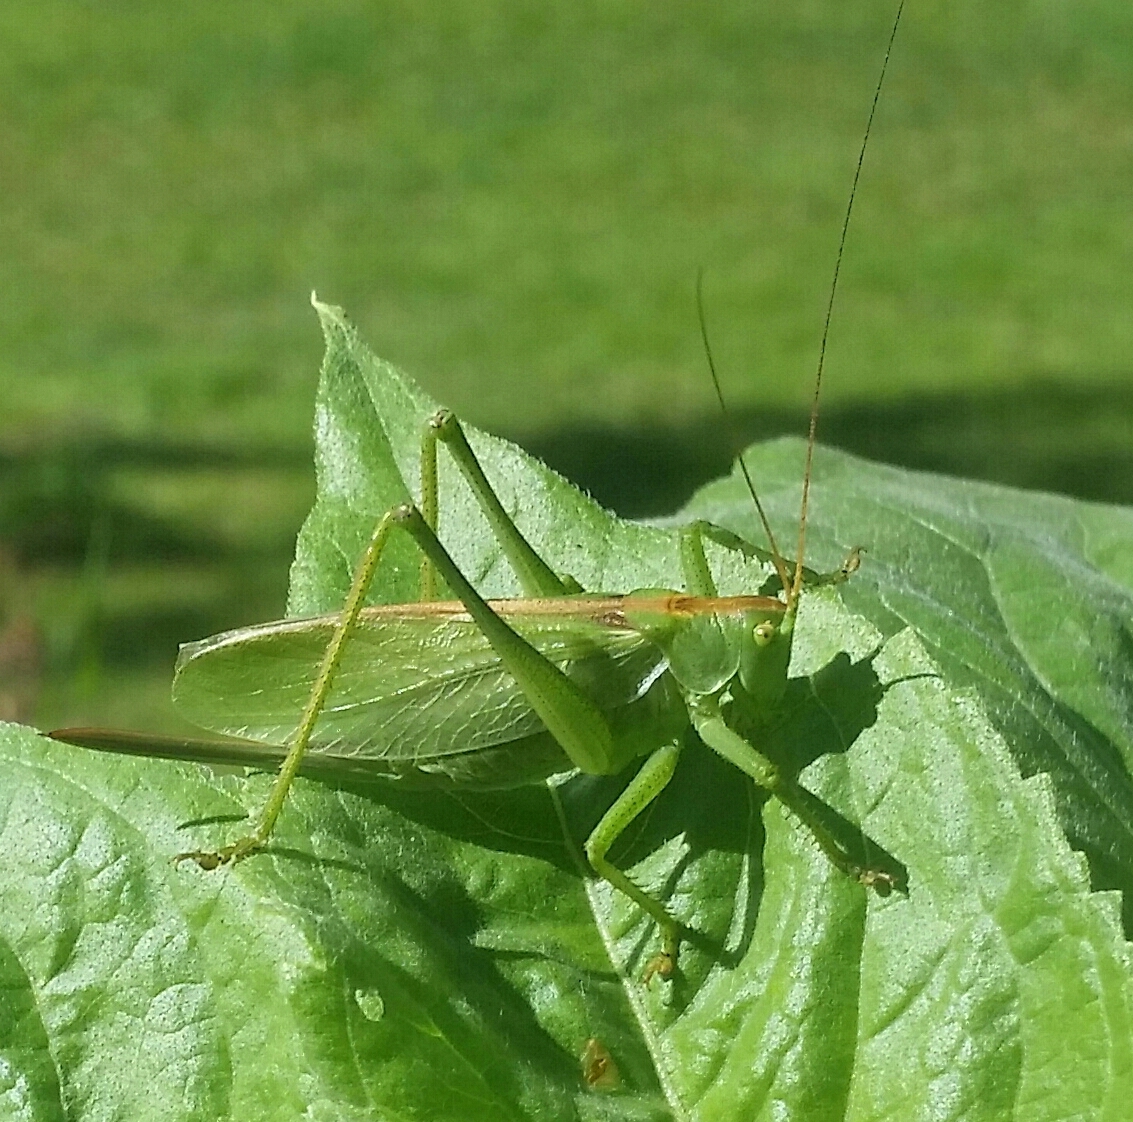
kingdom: Animalia
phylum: Arthropoda
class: Insecta
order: Orthoptera
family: Tettigoniidae
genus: Tettigonia
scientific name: Tettigonia cantans
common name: Upland green bush-cricket
